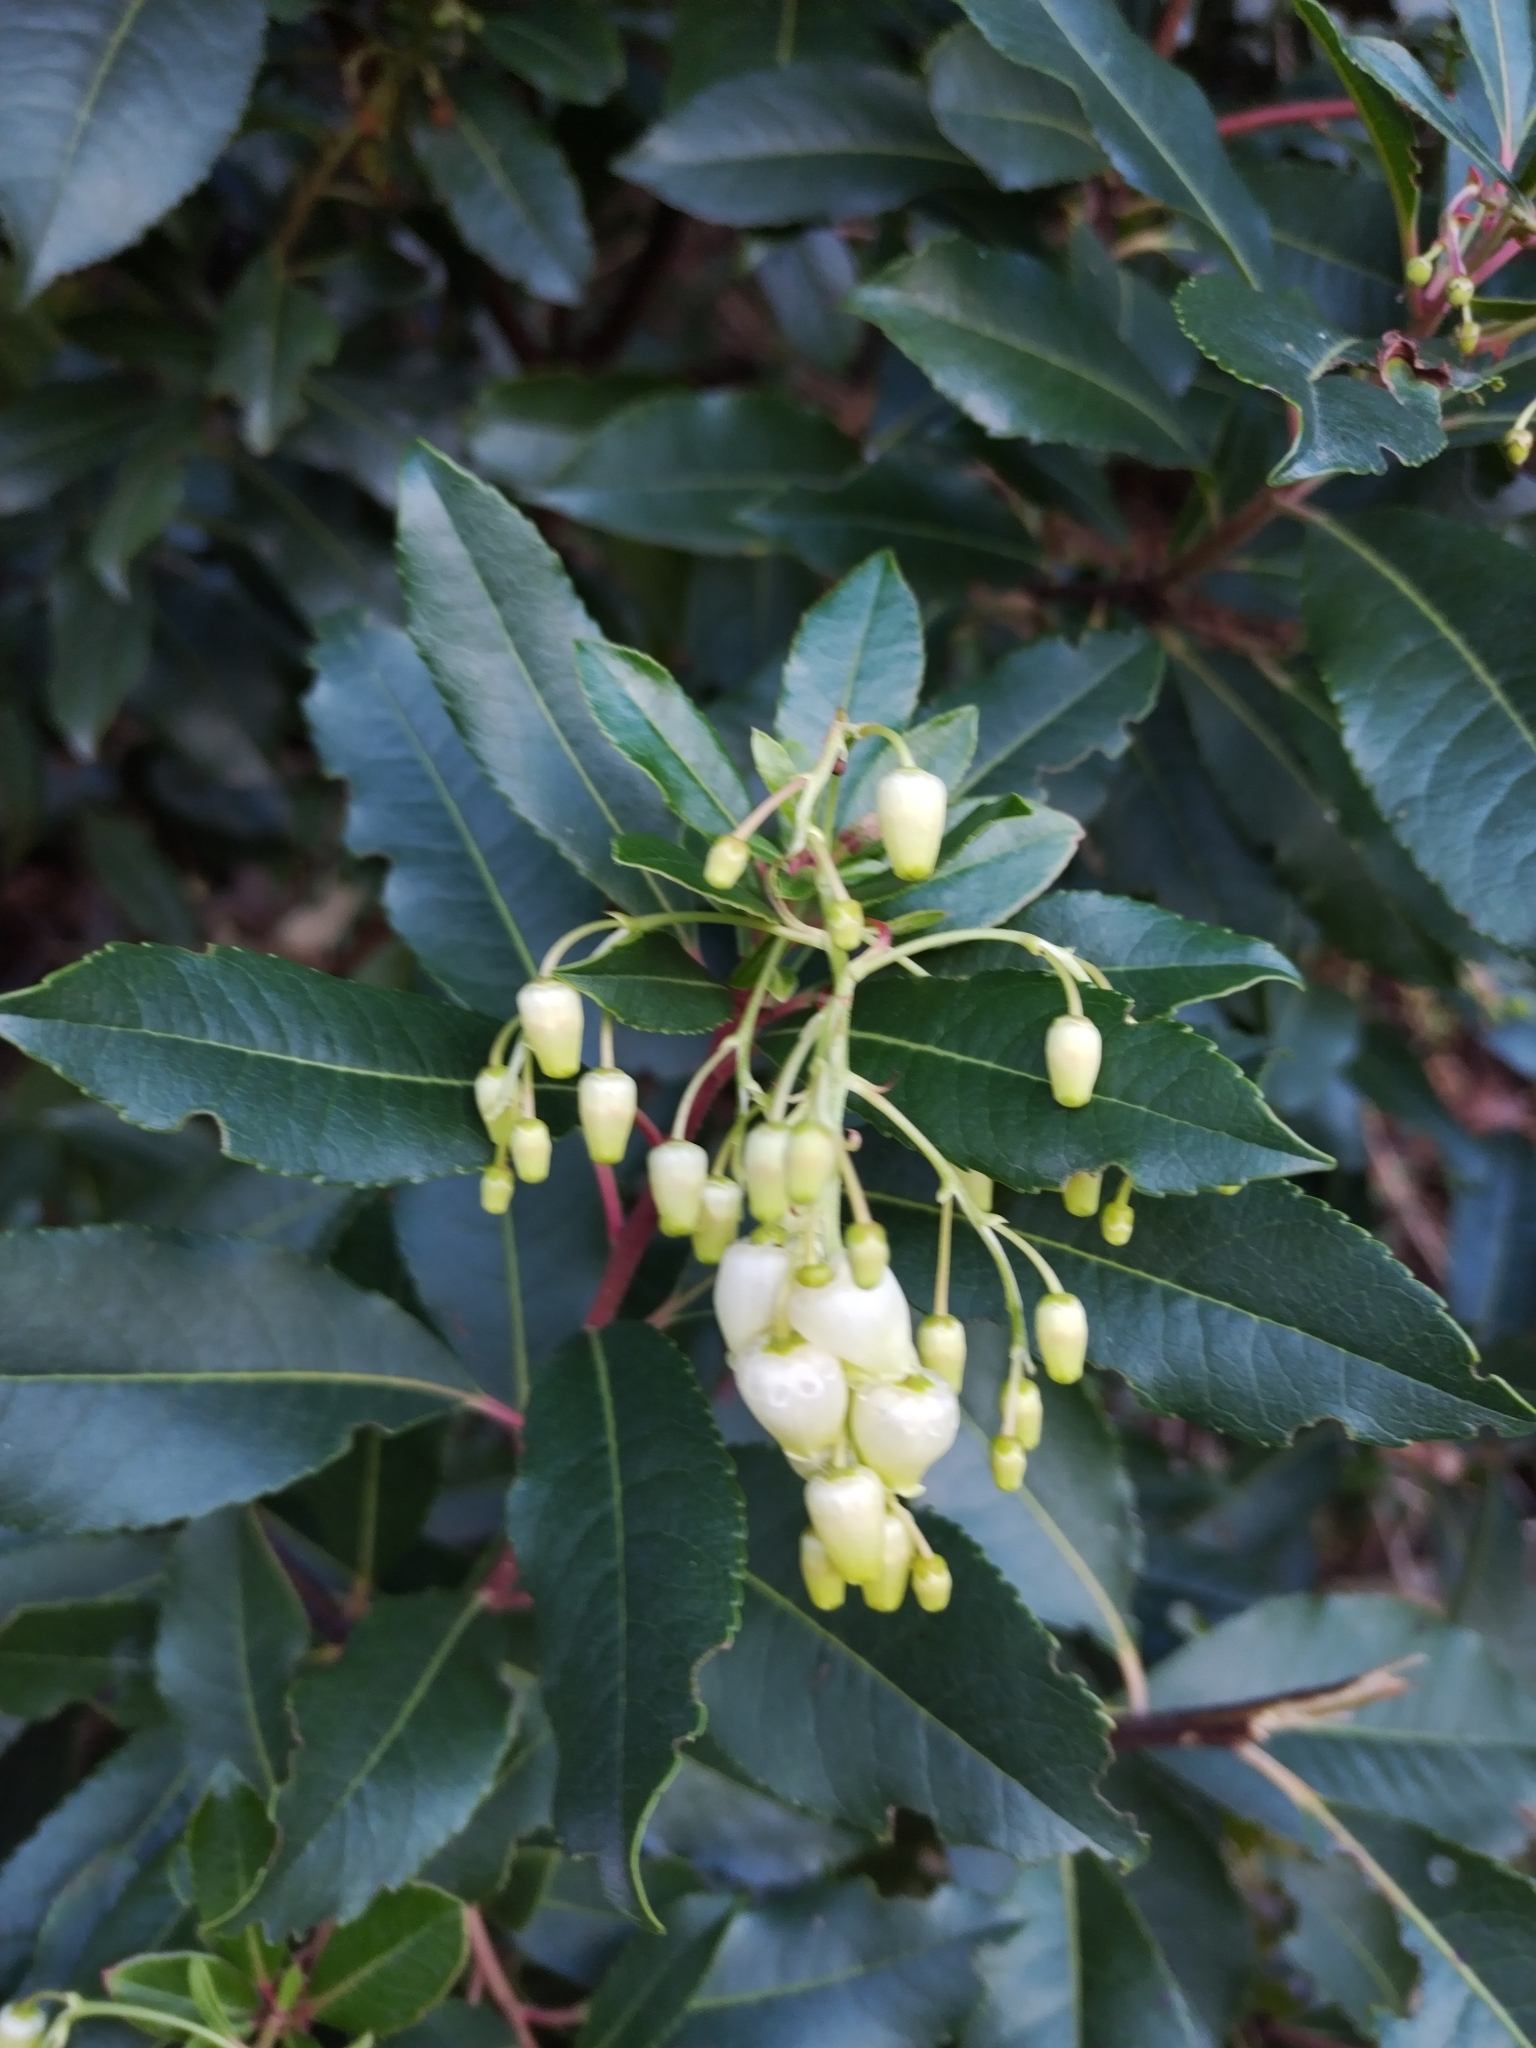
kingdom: Plantae
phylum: Tracheophyta
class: Magnoliopsida
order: Ericales
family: Ericaceae
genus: Arbutus
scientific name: Arbutus unedo
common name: Strawberry-tree
